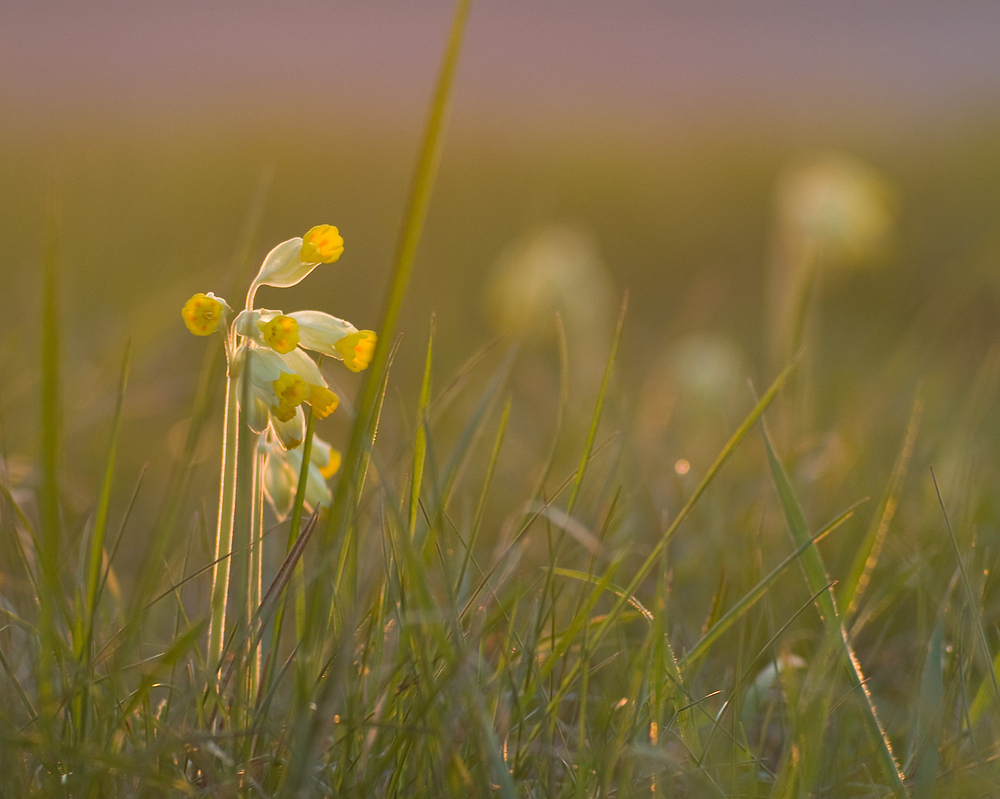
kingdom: Plantae
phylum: Tracheophyta
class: Magnoliopsida
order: Ericales
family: Primulaceae
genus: Primula
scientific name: Primula veris
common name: Cowslip
